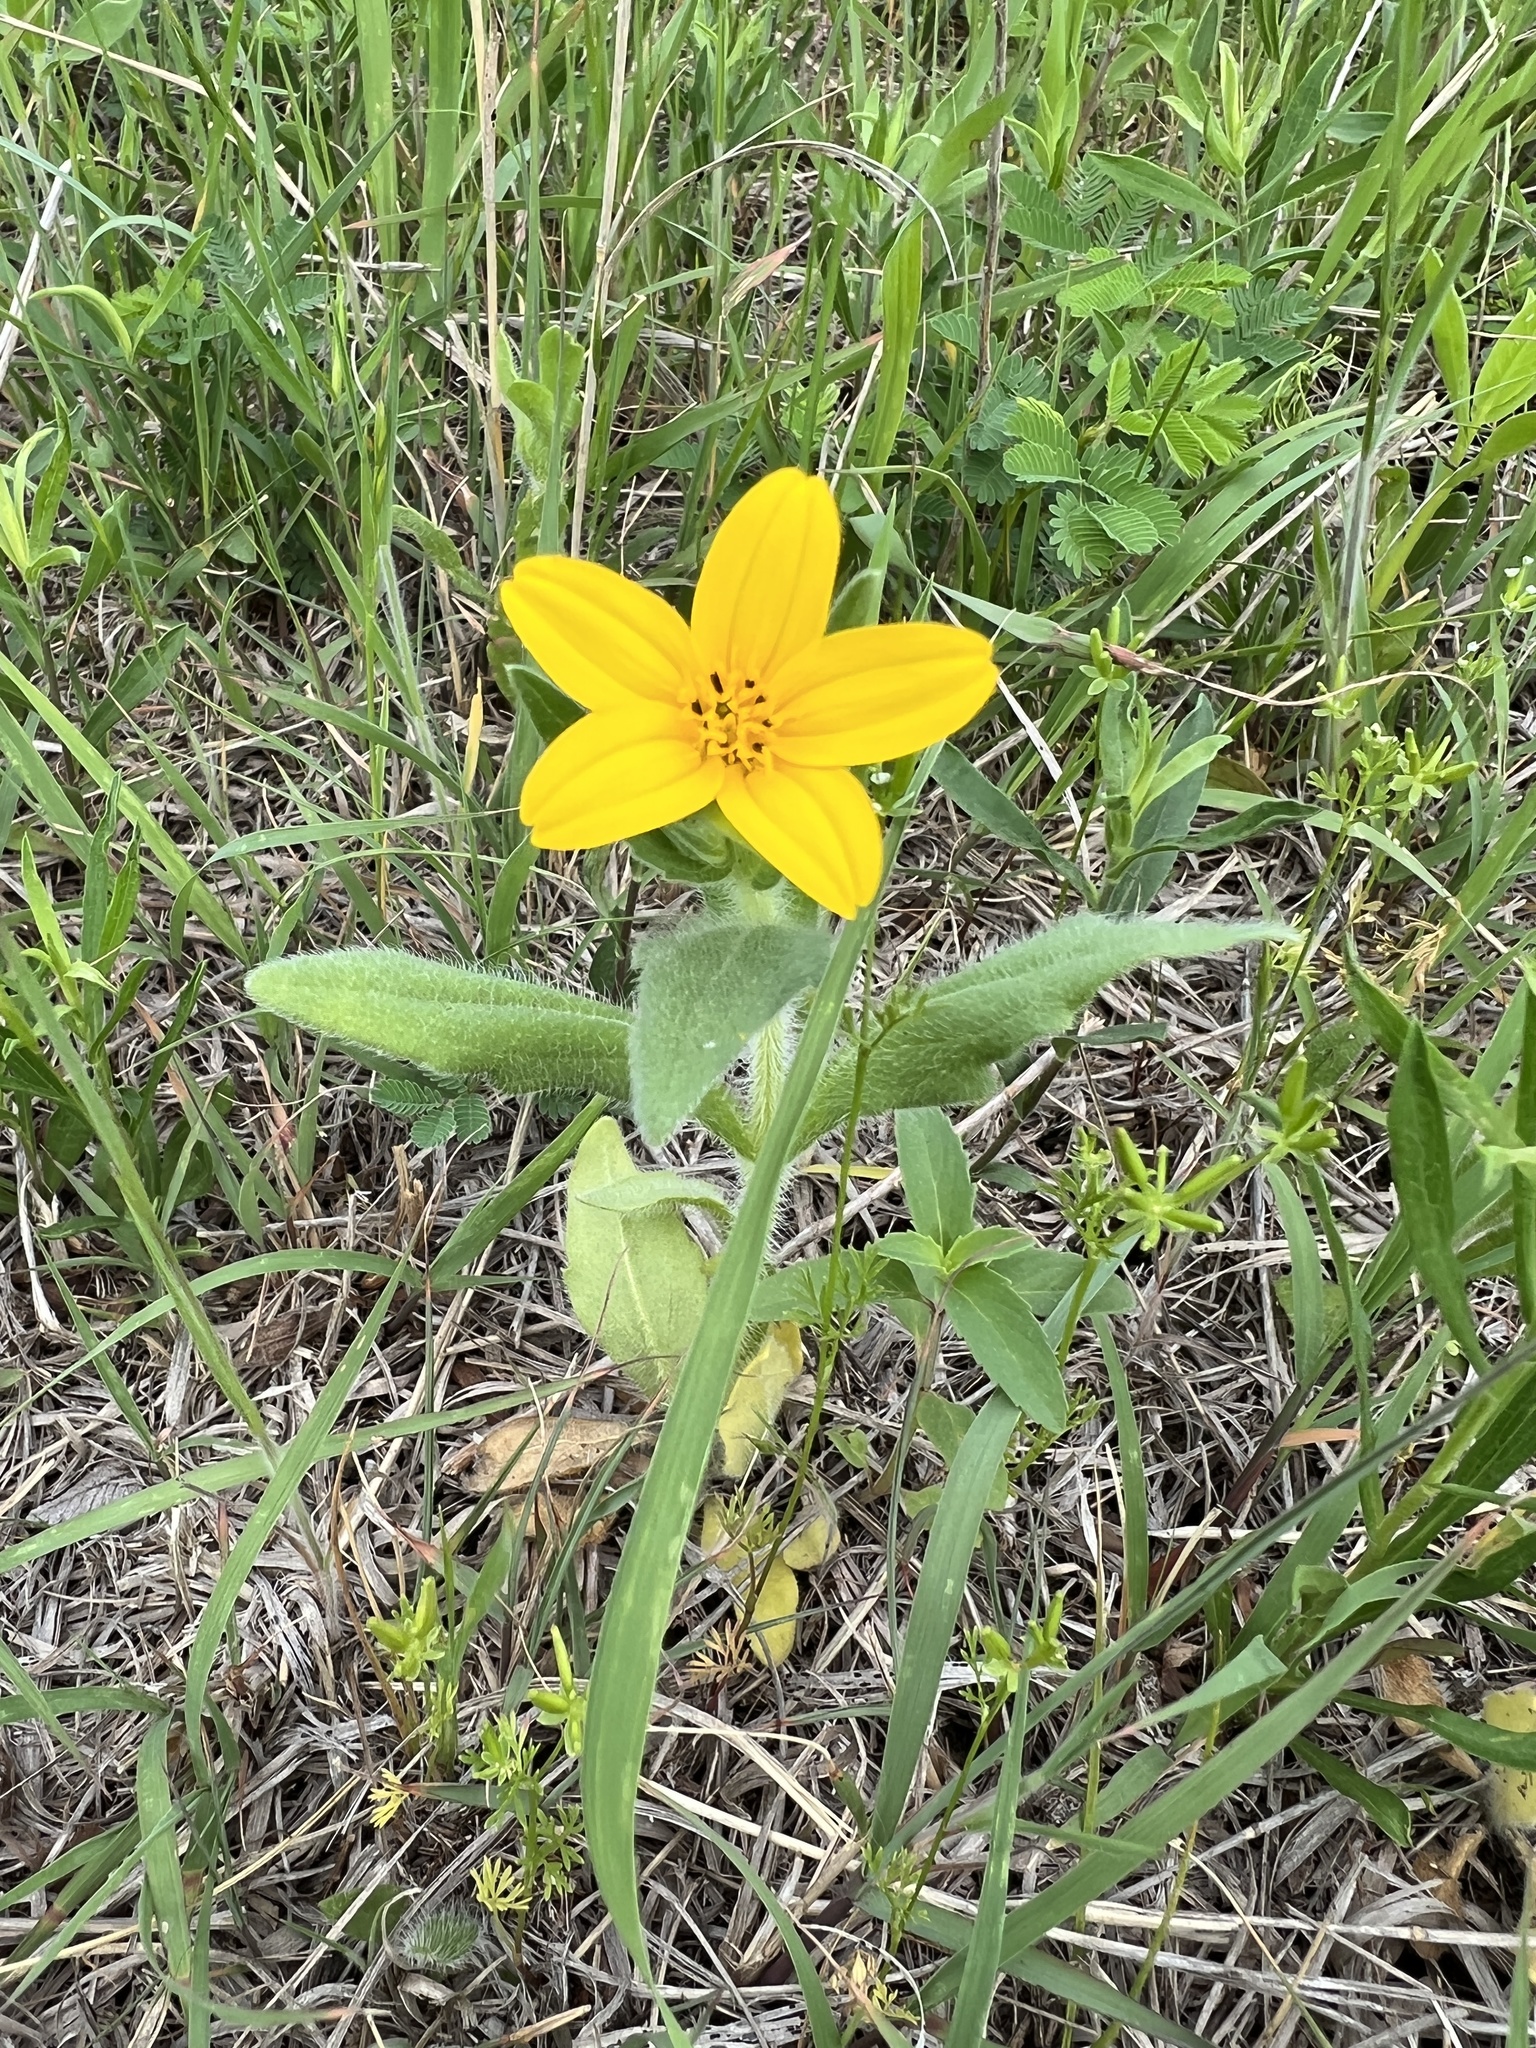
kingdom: Plantae
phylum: Tracheophyta
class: Magnoliopsida
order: Asterales
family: Asteraceae
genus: Lindheimera
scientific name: Lindheimera texana
